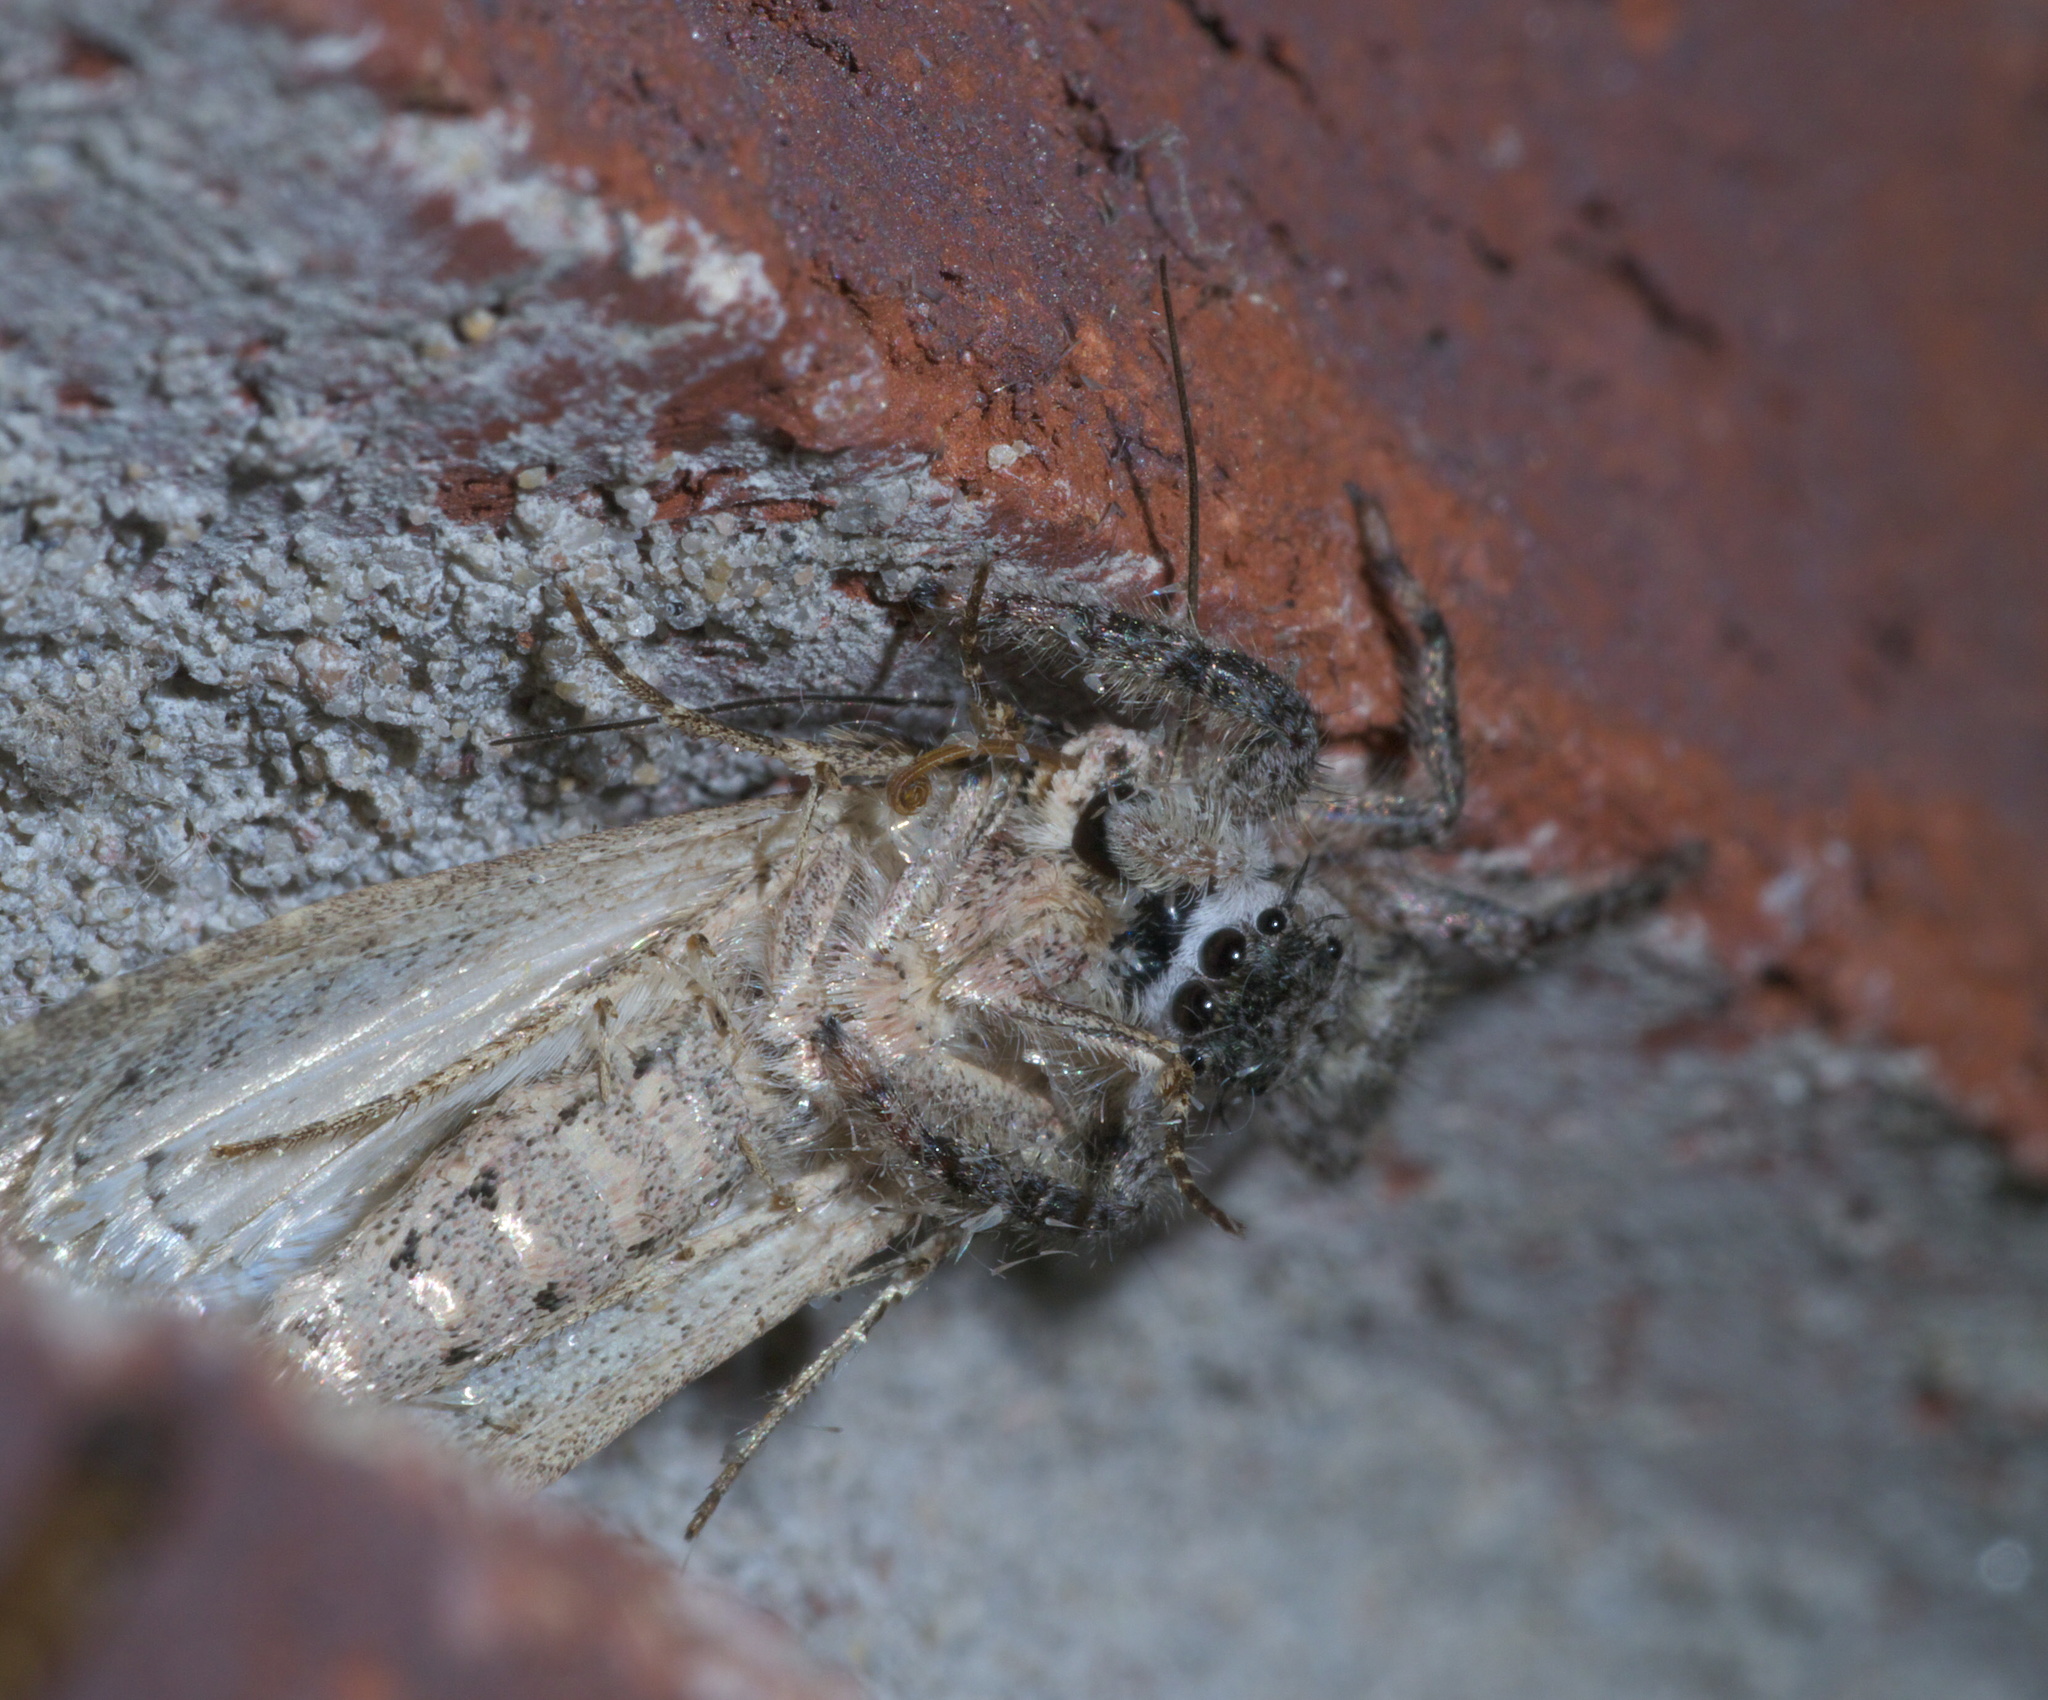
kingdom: Animalia
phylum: Arthropoda
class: Arachnida
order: Araneae
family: Salticidae
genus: Platycryptus
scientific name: Platycryptus undatus
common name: Tan jumping spider
